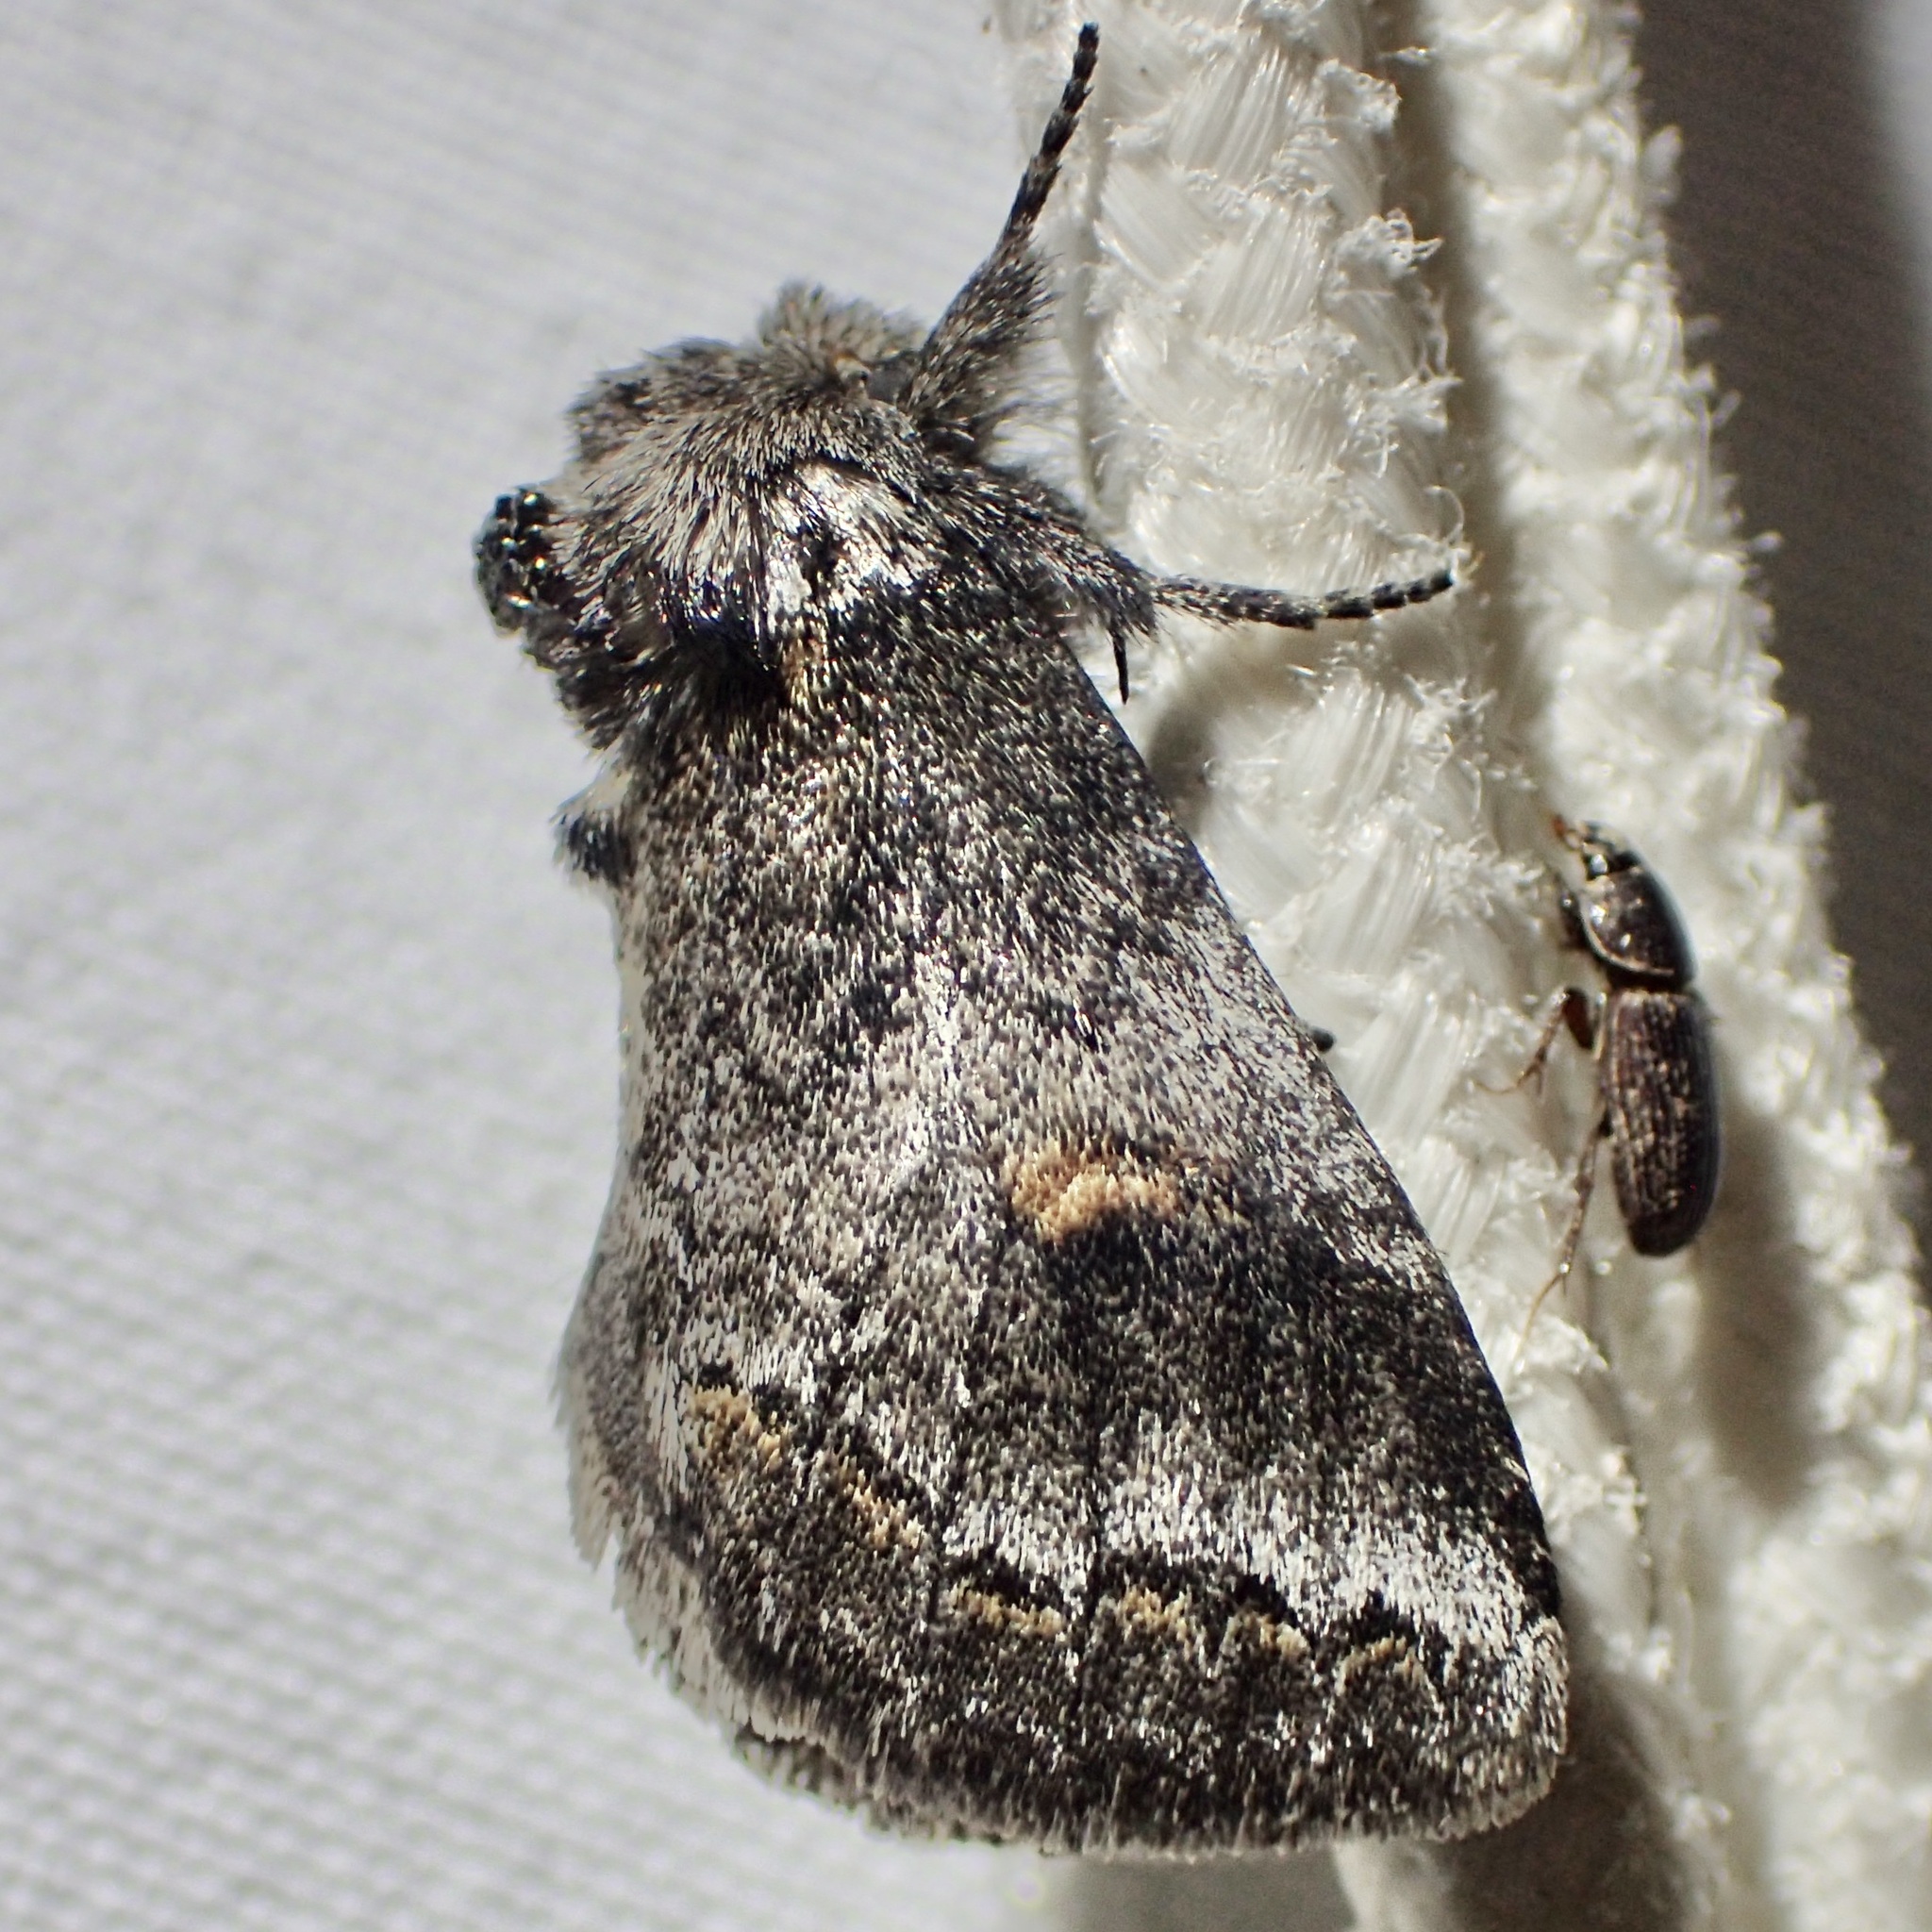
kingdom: Animalia
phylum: Arthropoda
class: Insecta
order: Lepidoptera
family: Notodontidae
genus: Kalkoma
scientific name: Kalkoma zapata
